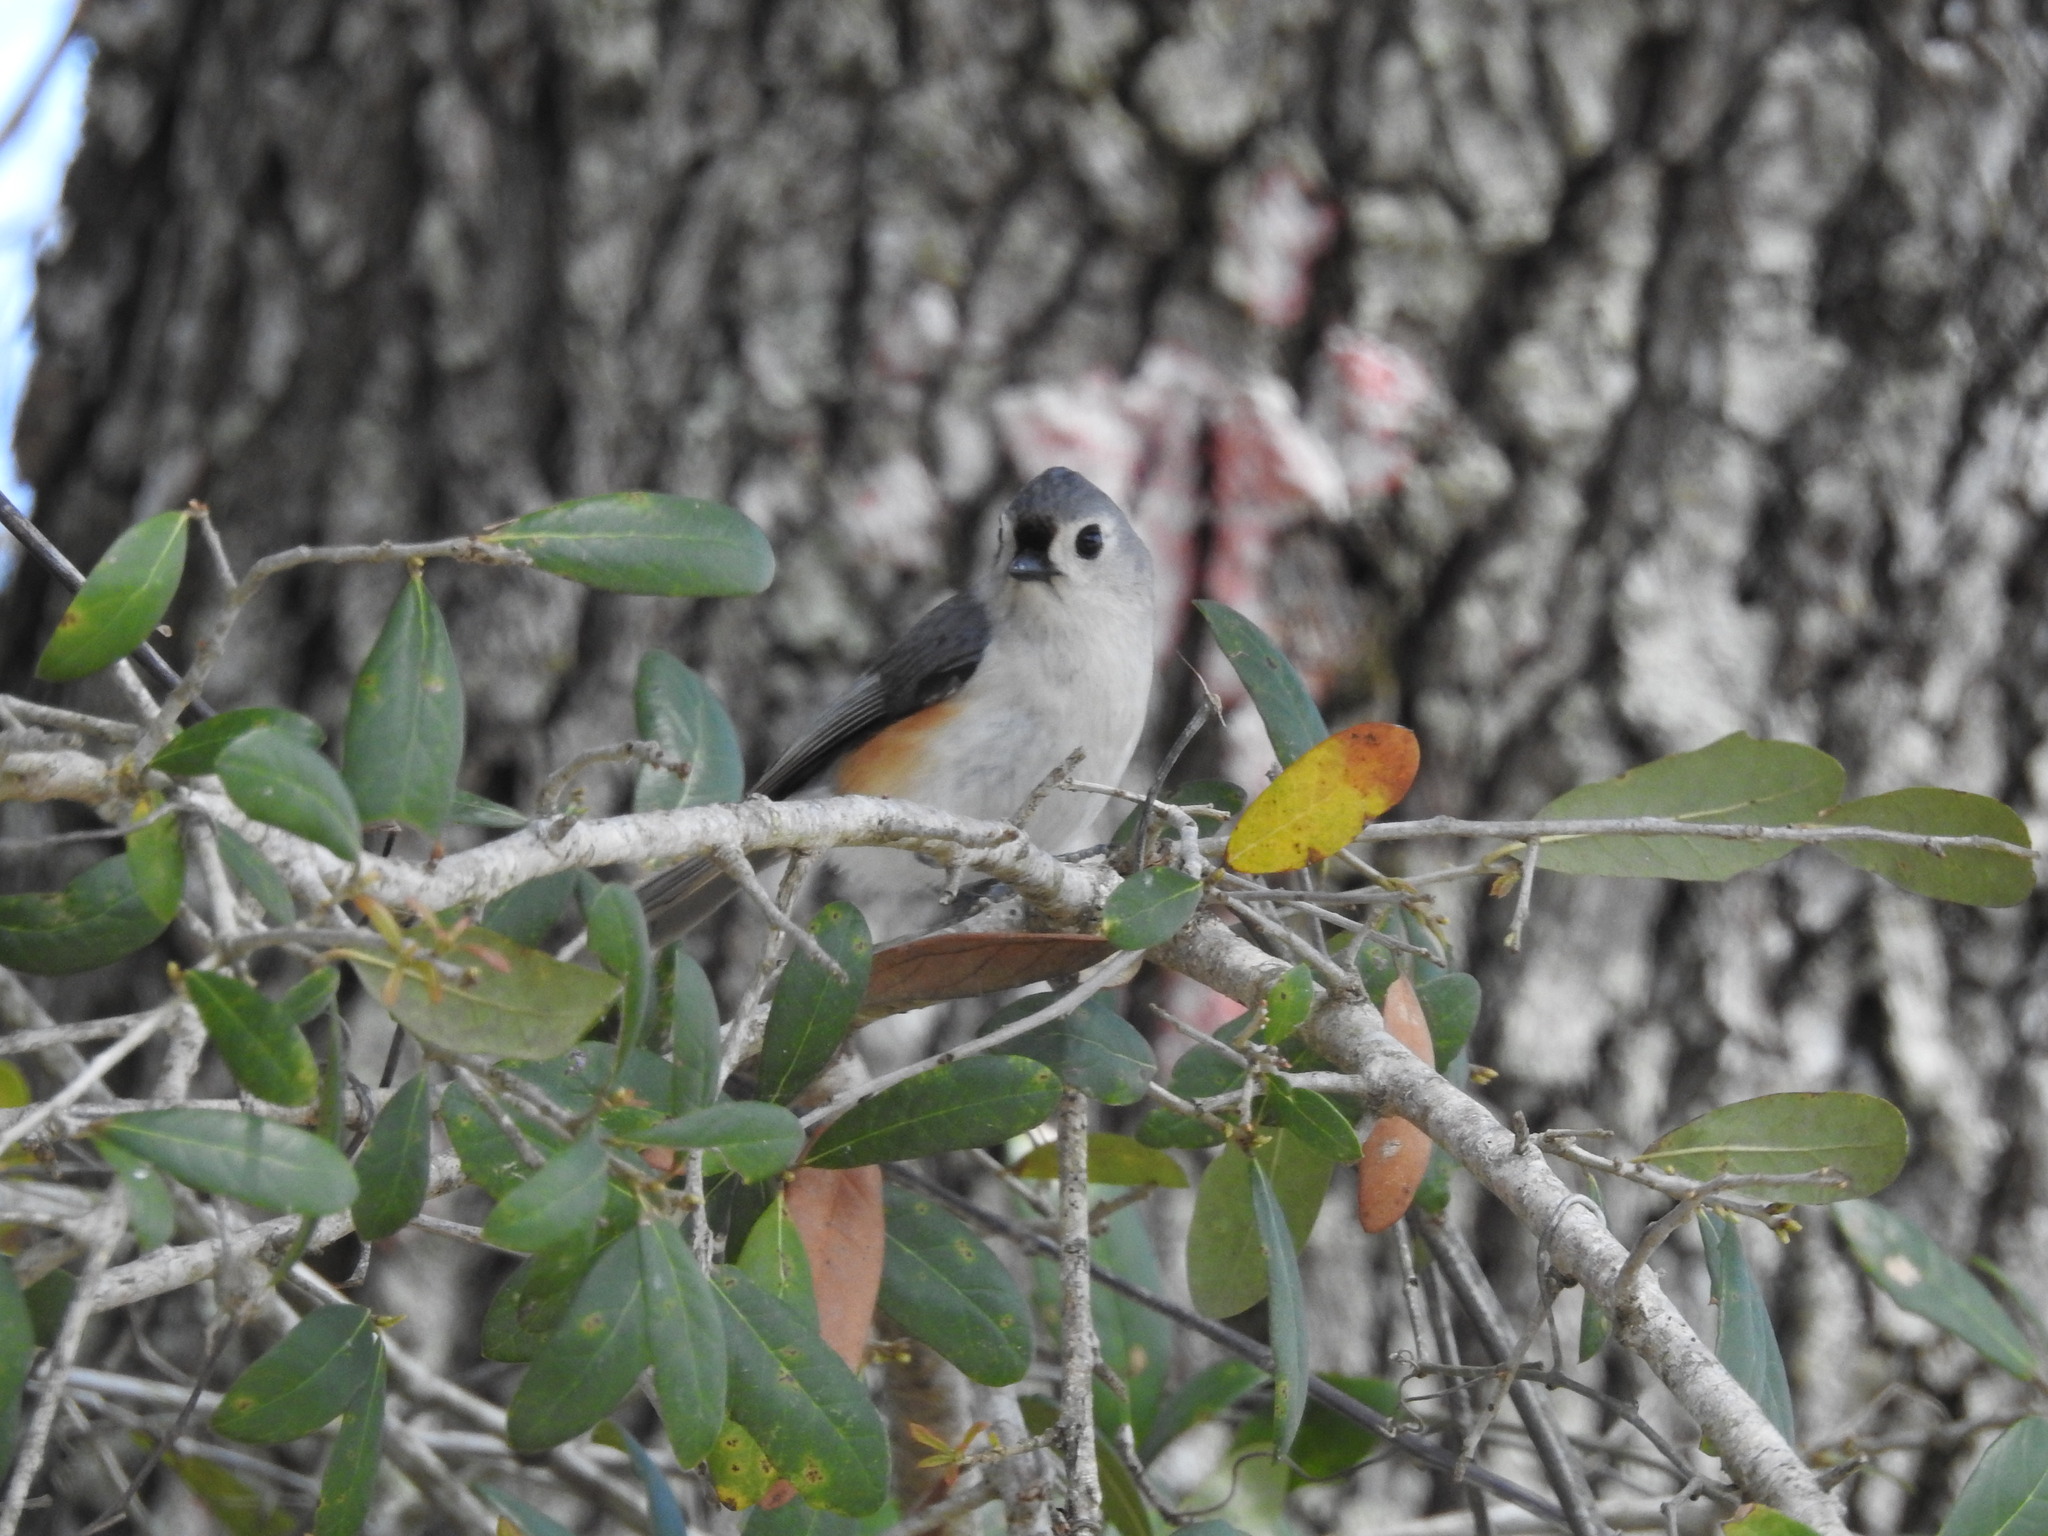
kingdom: Animalia
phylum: Chordata
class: Aves
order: Passeriformes
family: Paridae
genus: Baeolophus
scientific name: Baeolophus bicolor
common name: Tufted titmouse
